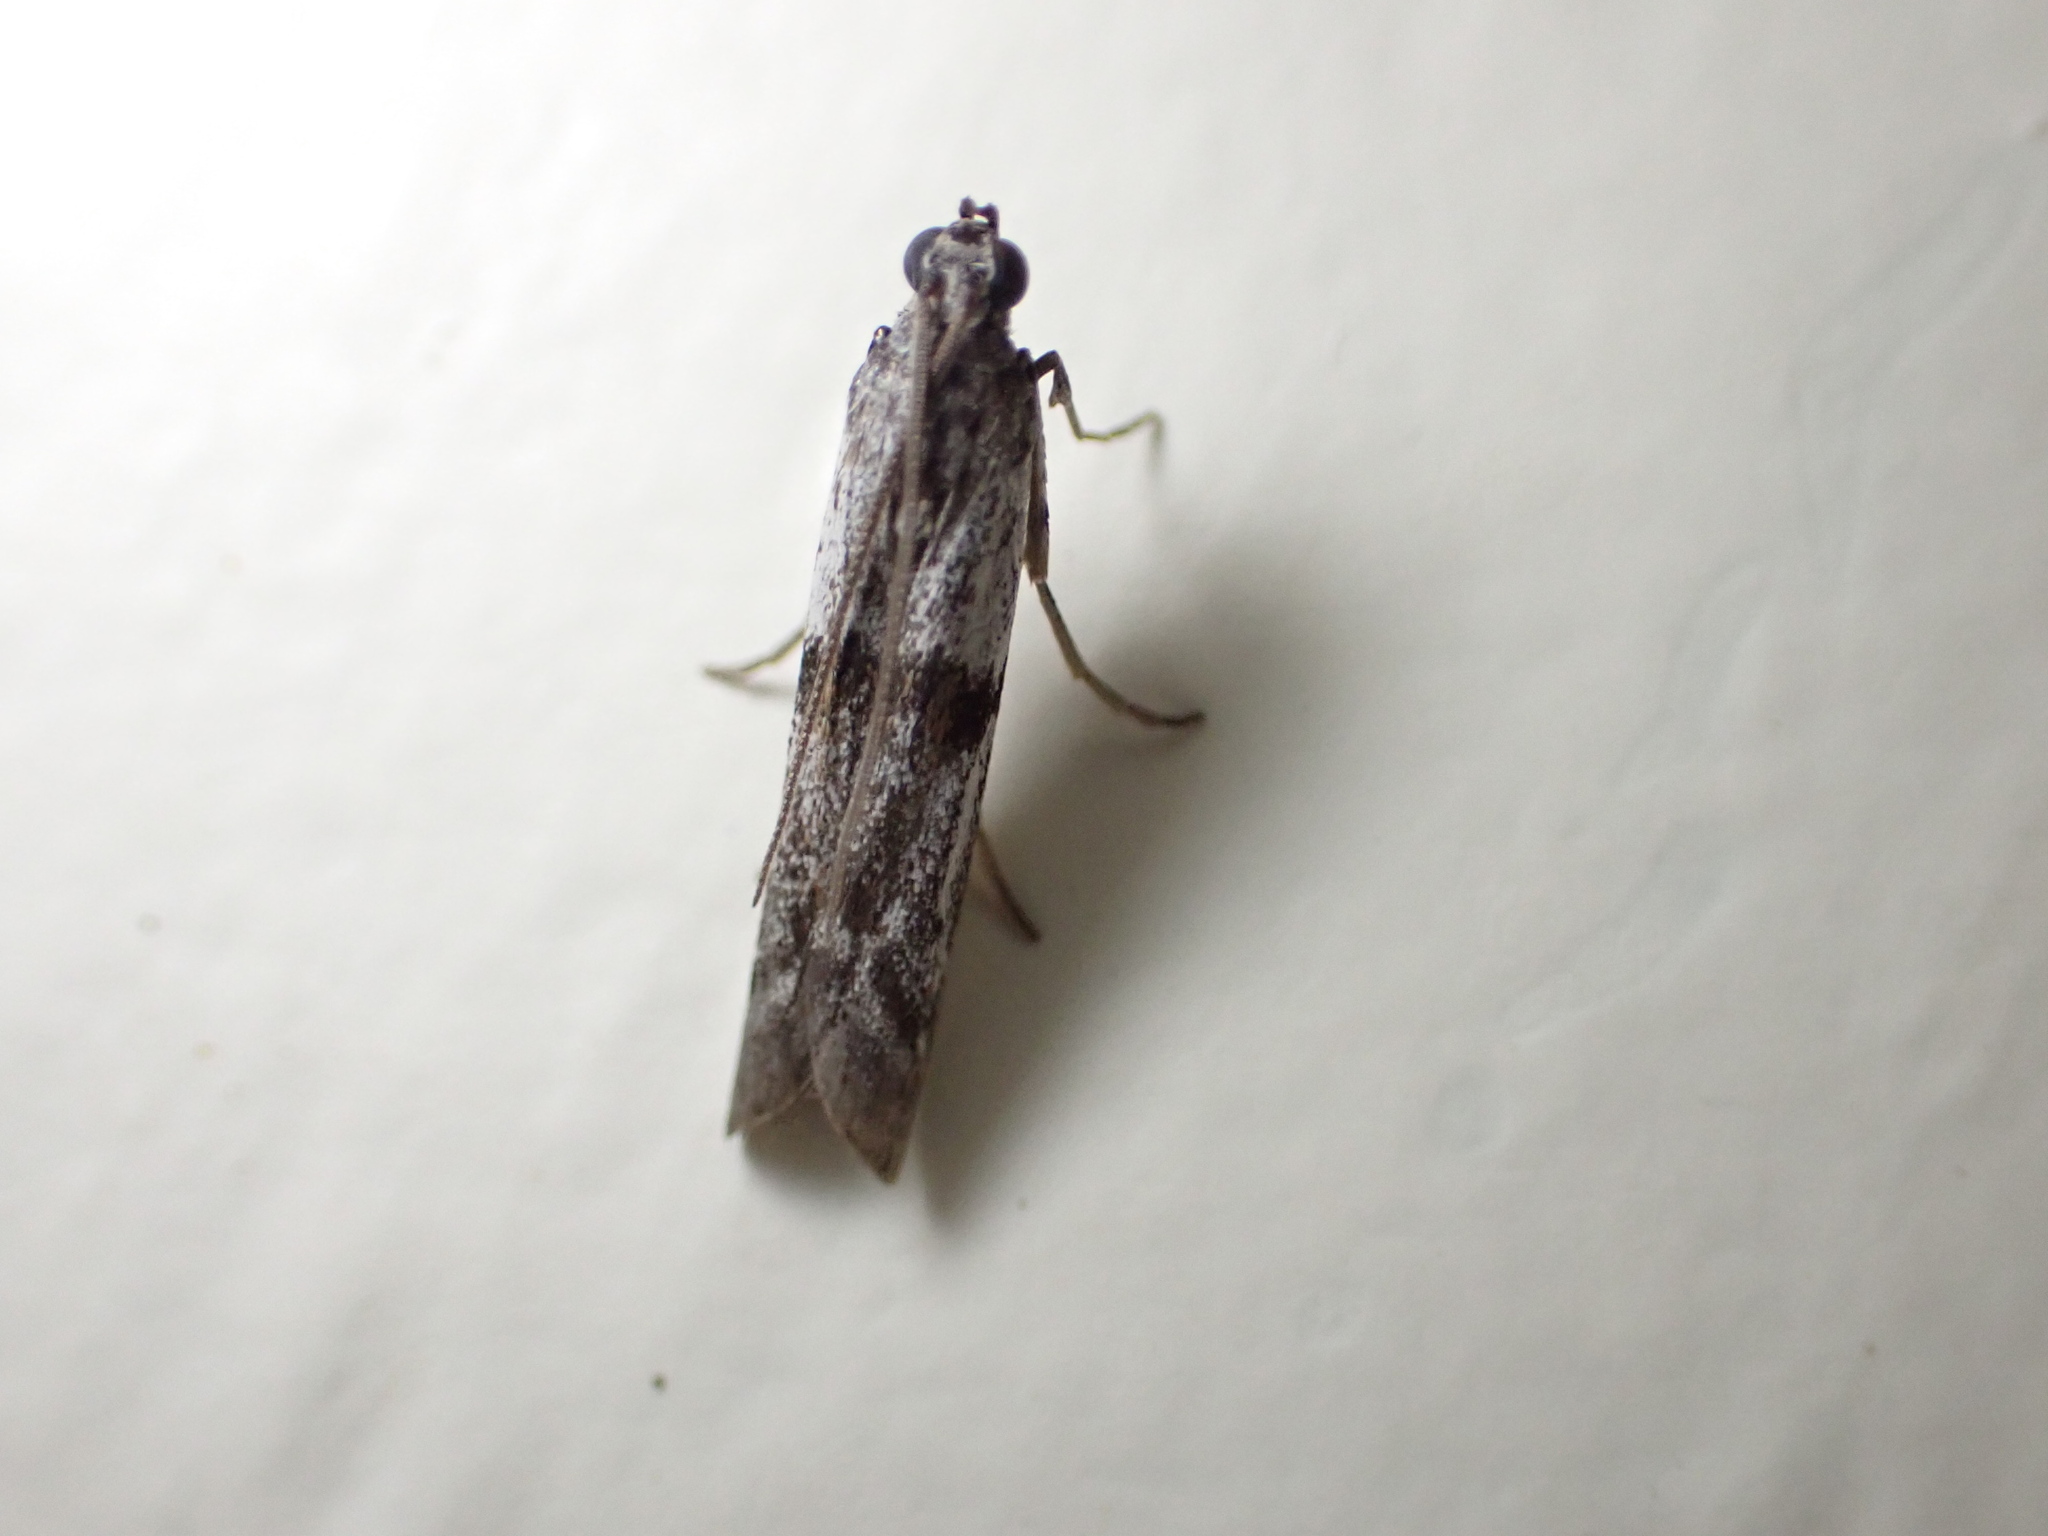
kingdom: Animalia
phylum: Arthropoda
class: Insecta
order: Lepidoptera
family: Pyralidae
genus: Patagoniodes
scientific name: Patagoniodes farinaria
